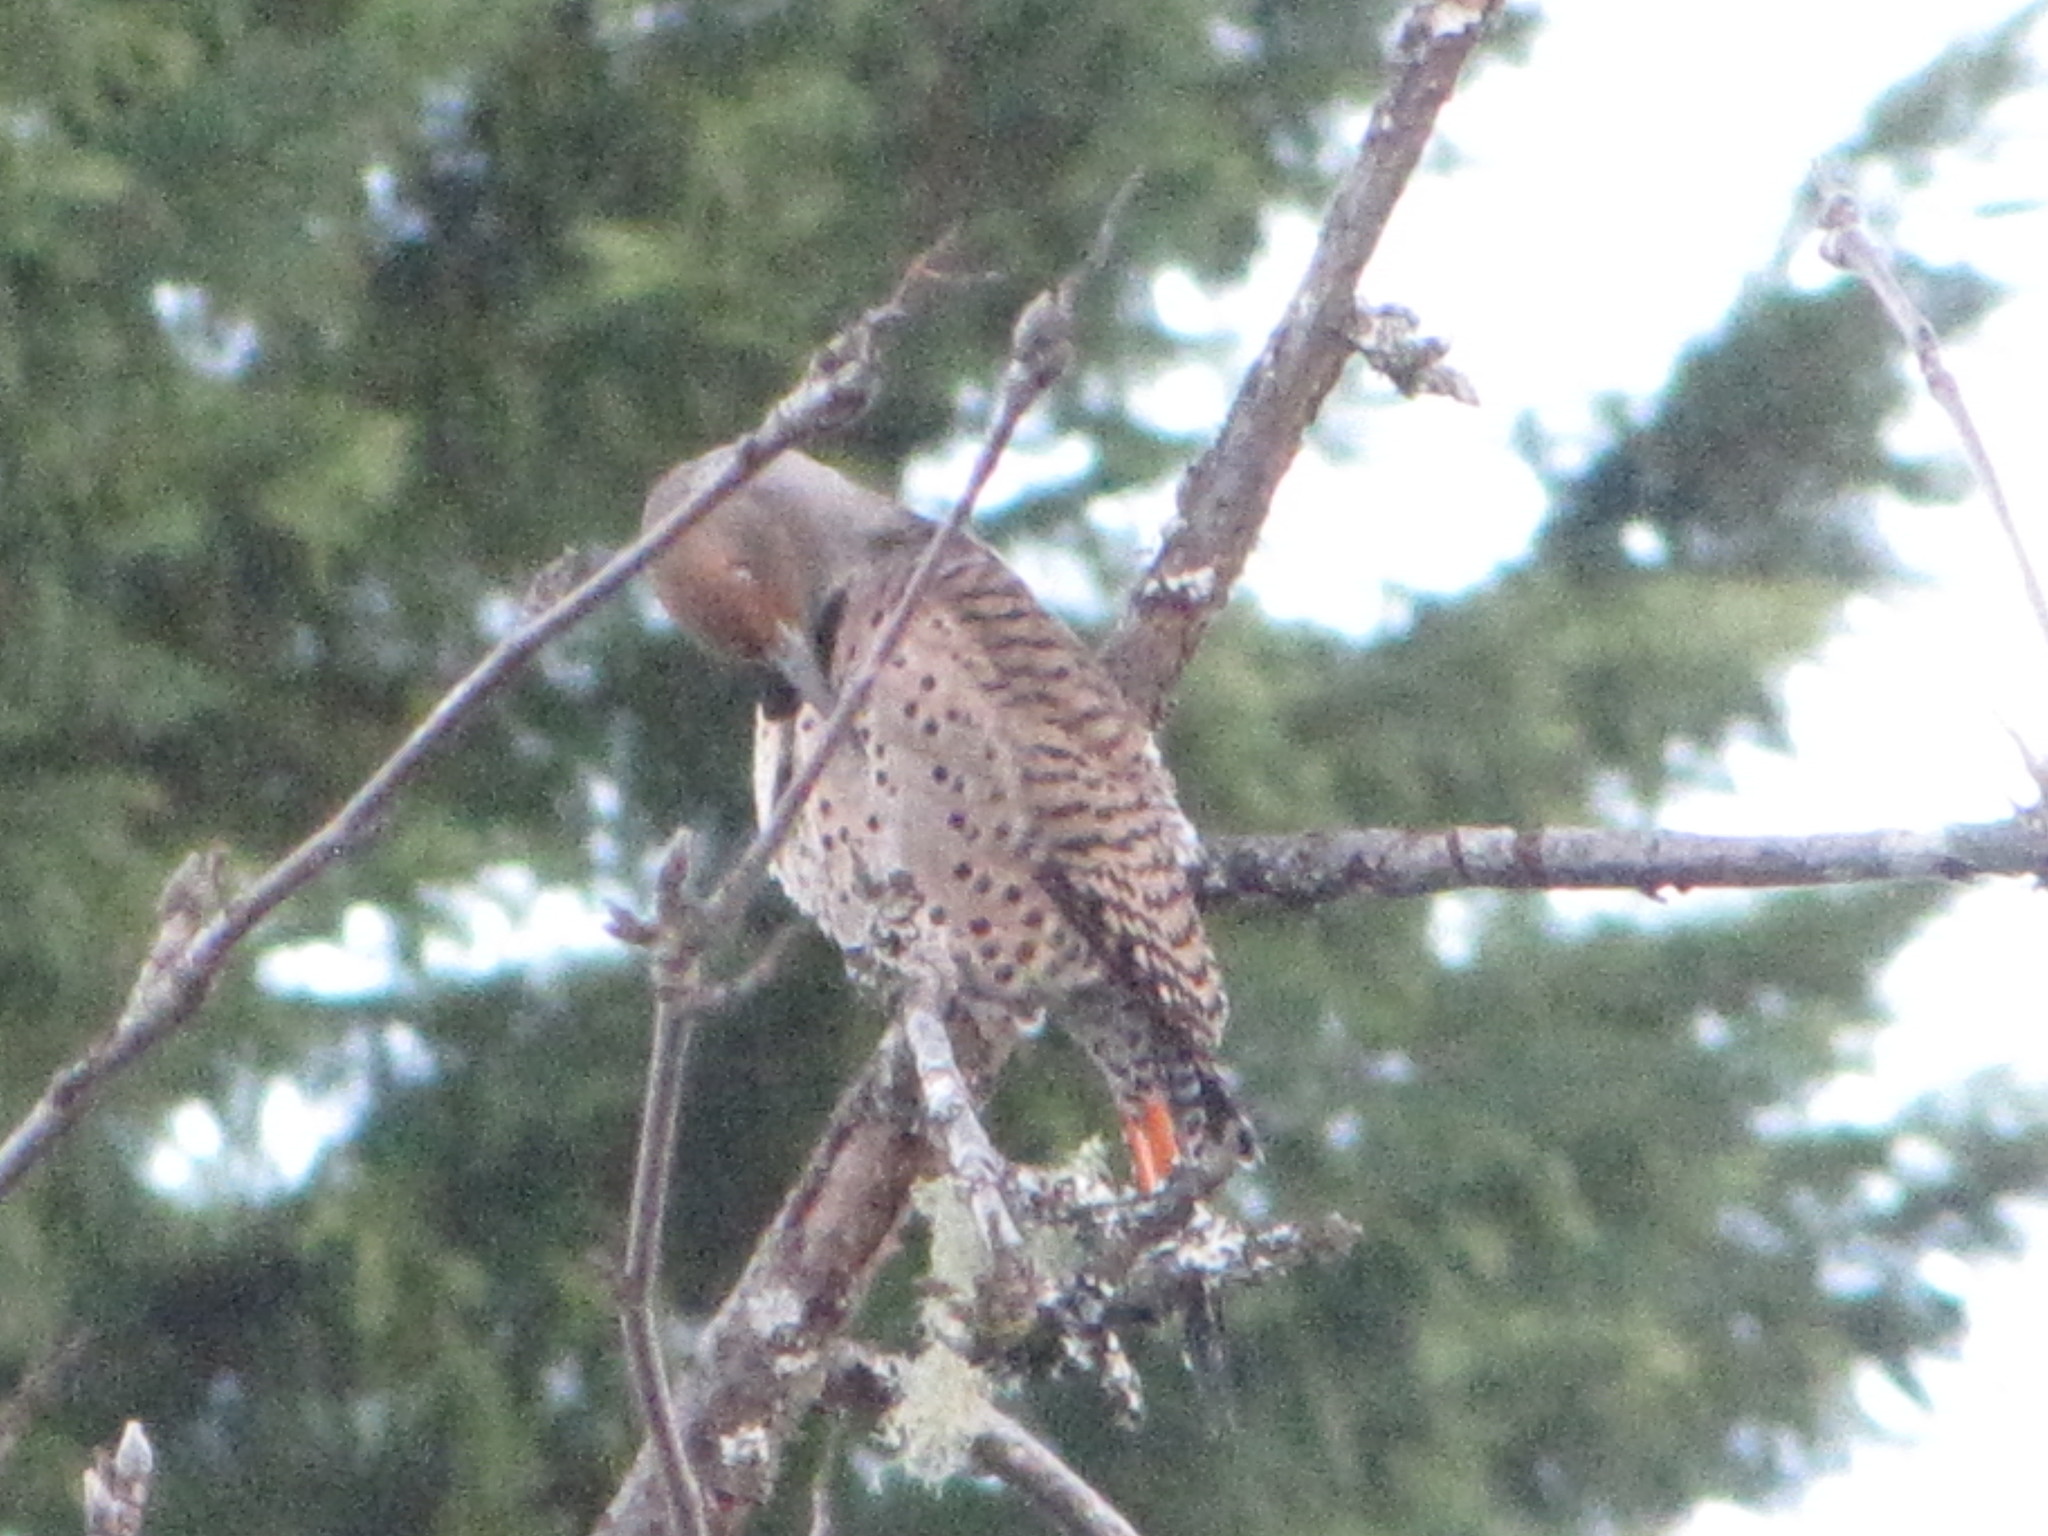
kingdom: Animalia
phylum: Chordata
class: Aves
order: Piciformes
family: Picidae
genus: Colaptes
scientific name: Colaptes auratus
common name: Northern flicker
